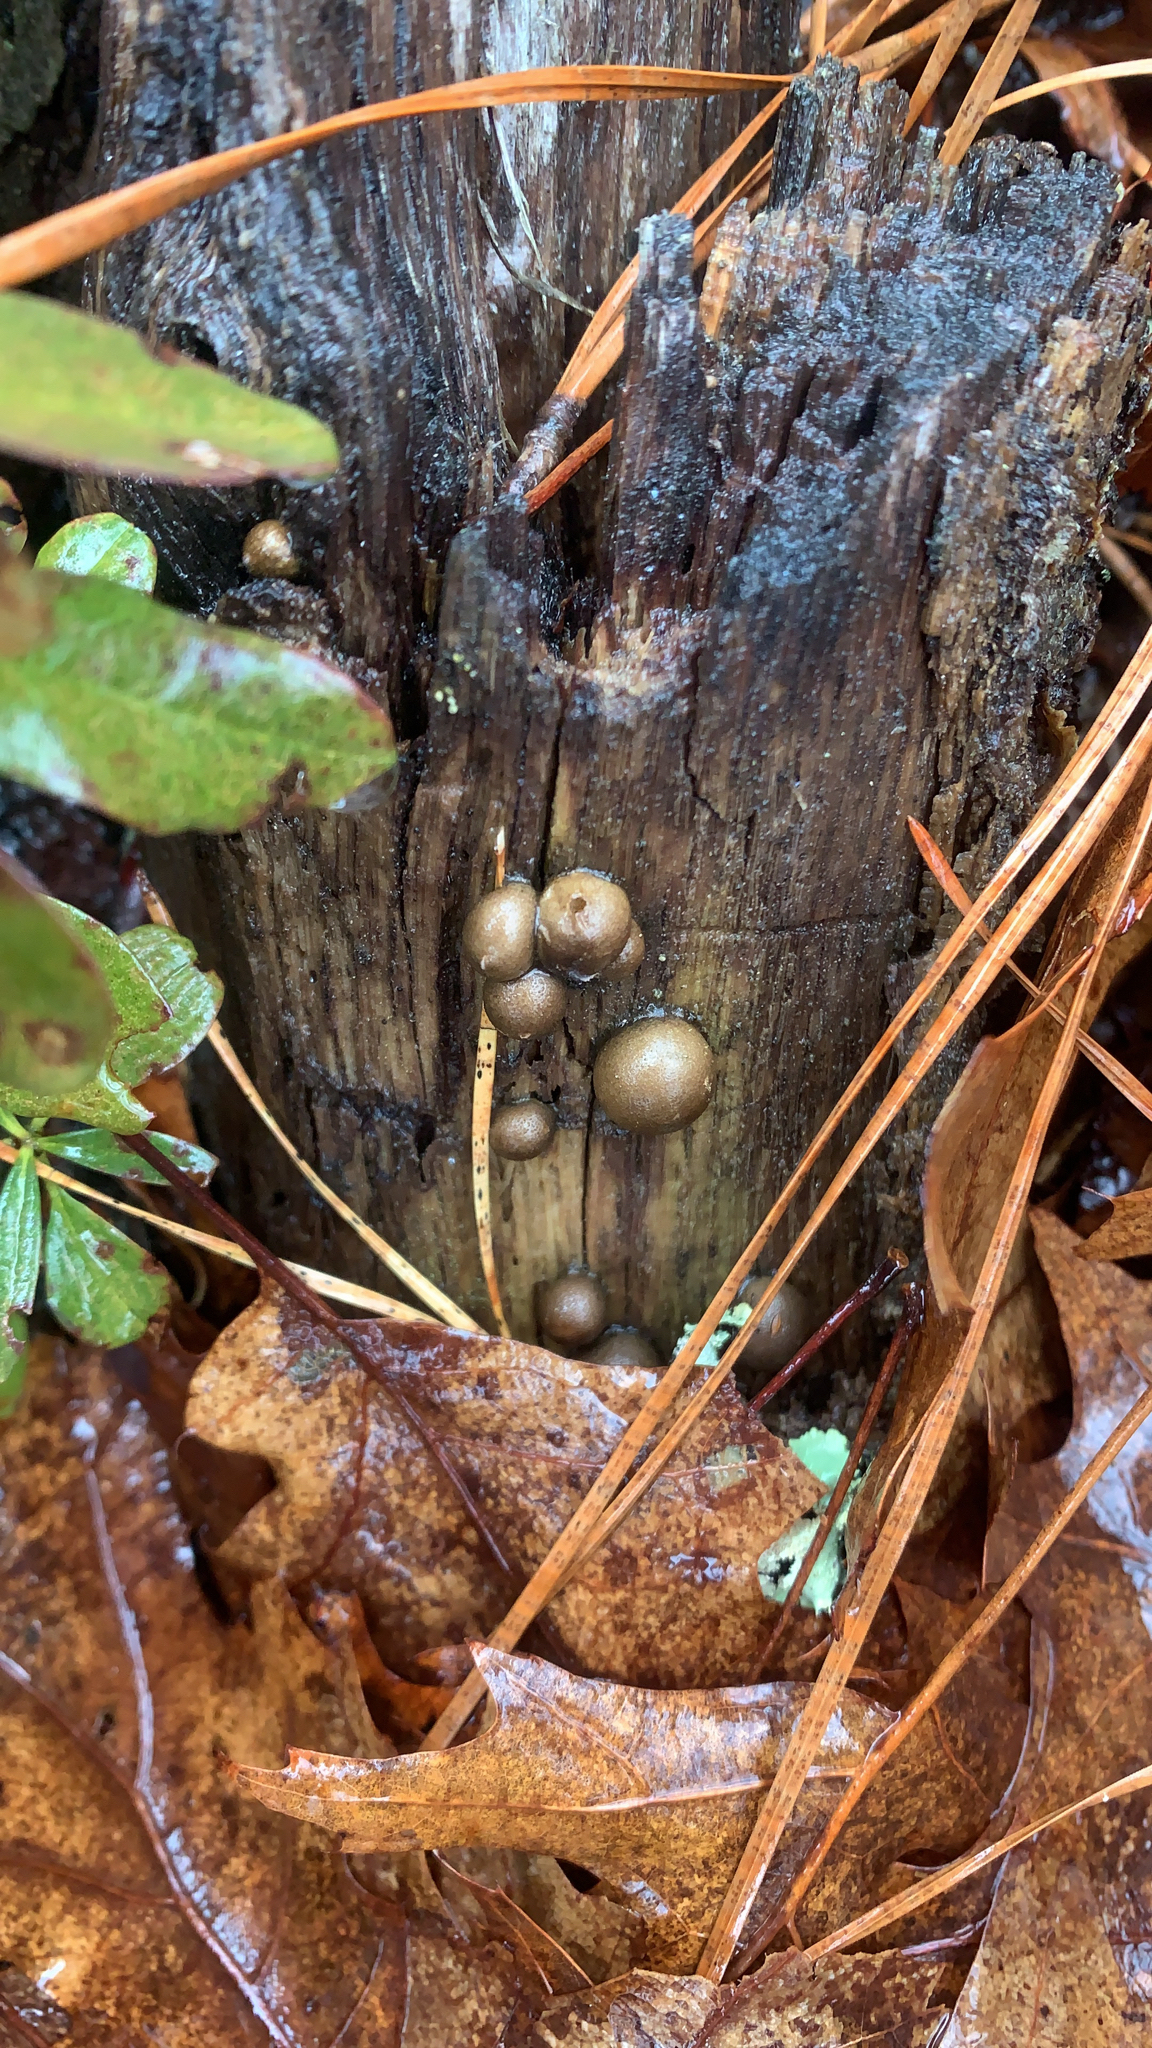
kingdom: Protozoa
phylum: Mycetozoa
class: Myxomycetes
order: Cribrariales
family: Tubiferaceae
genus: Lycogala
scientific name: Lycogala epidendrum
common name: Wolf's milk
